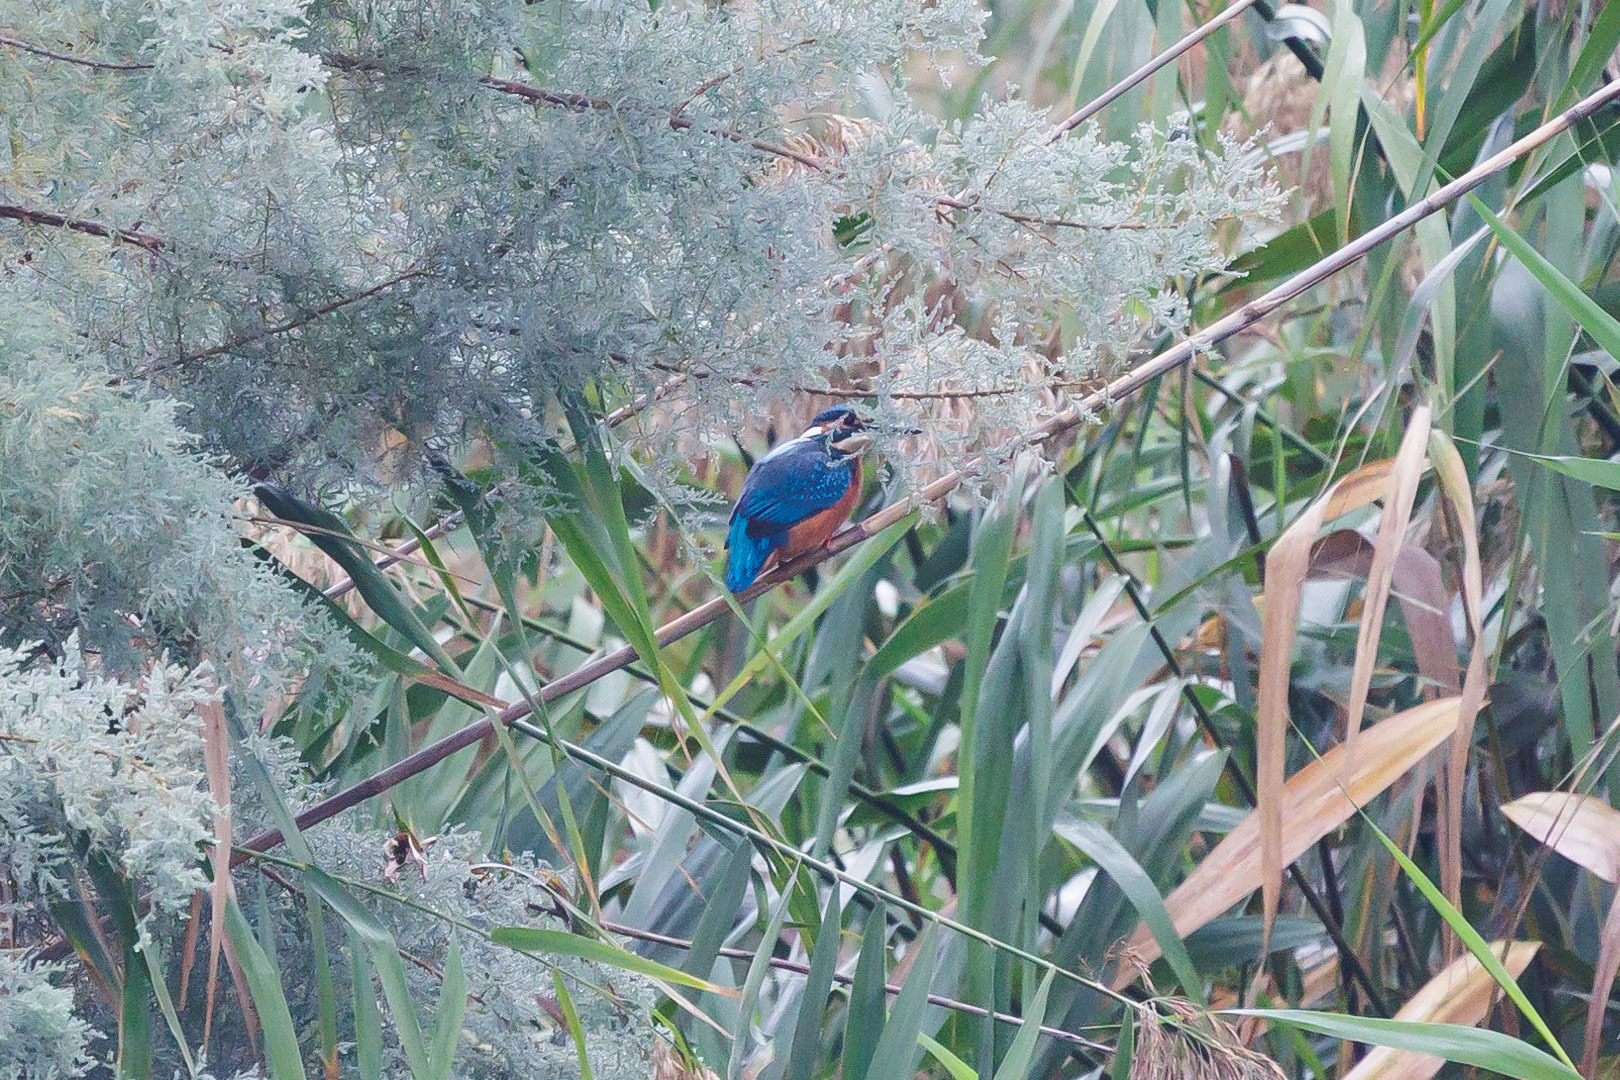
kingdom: Animalia
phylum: Chordata
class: Aves
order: Coraciiformes
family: Alcedinidae
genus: Alcedo
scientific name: Alcedo atthis
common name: Common kingfisher
